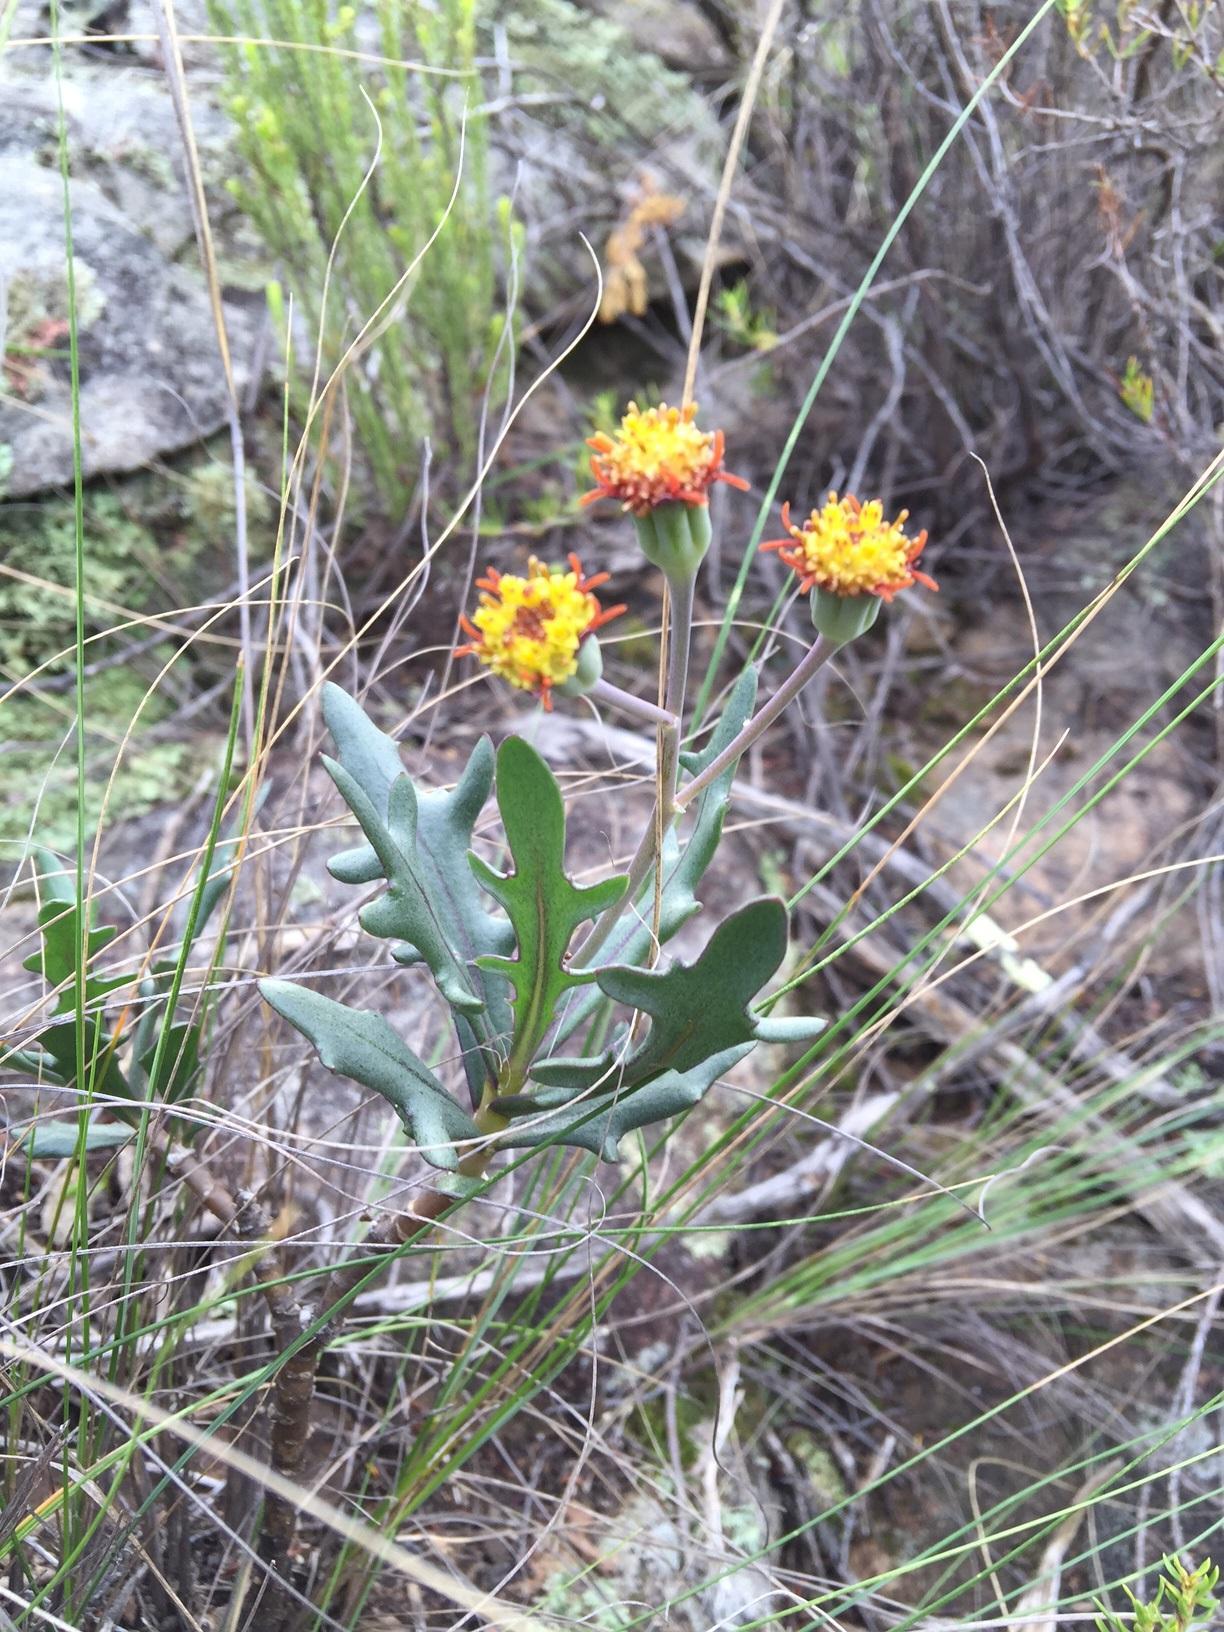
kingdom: Plantae
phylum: Tracheophyta
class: Magnoliopsida
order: Asterales
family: Asteraceae
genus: Othonna
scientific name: Othonna retrofracta
